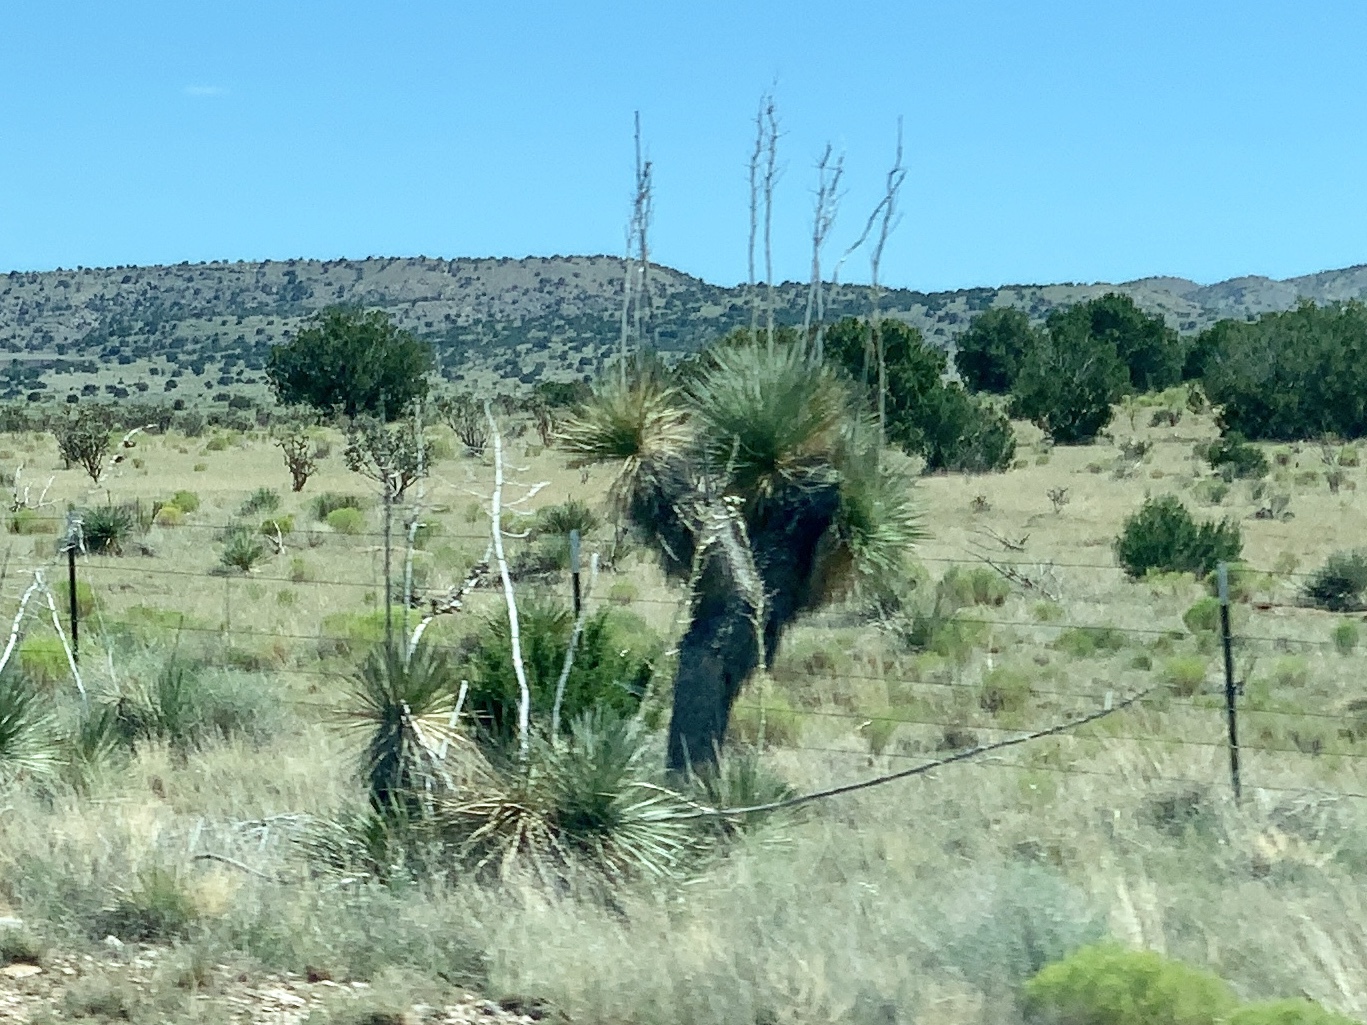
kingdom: Plantae
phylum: Tracheophyta
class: Liliopsida
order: Asparagales
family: Asparagaceae
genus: Yucca
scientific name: Yucca elata
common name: Palmella
